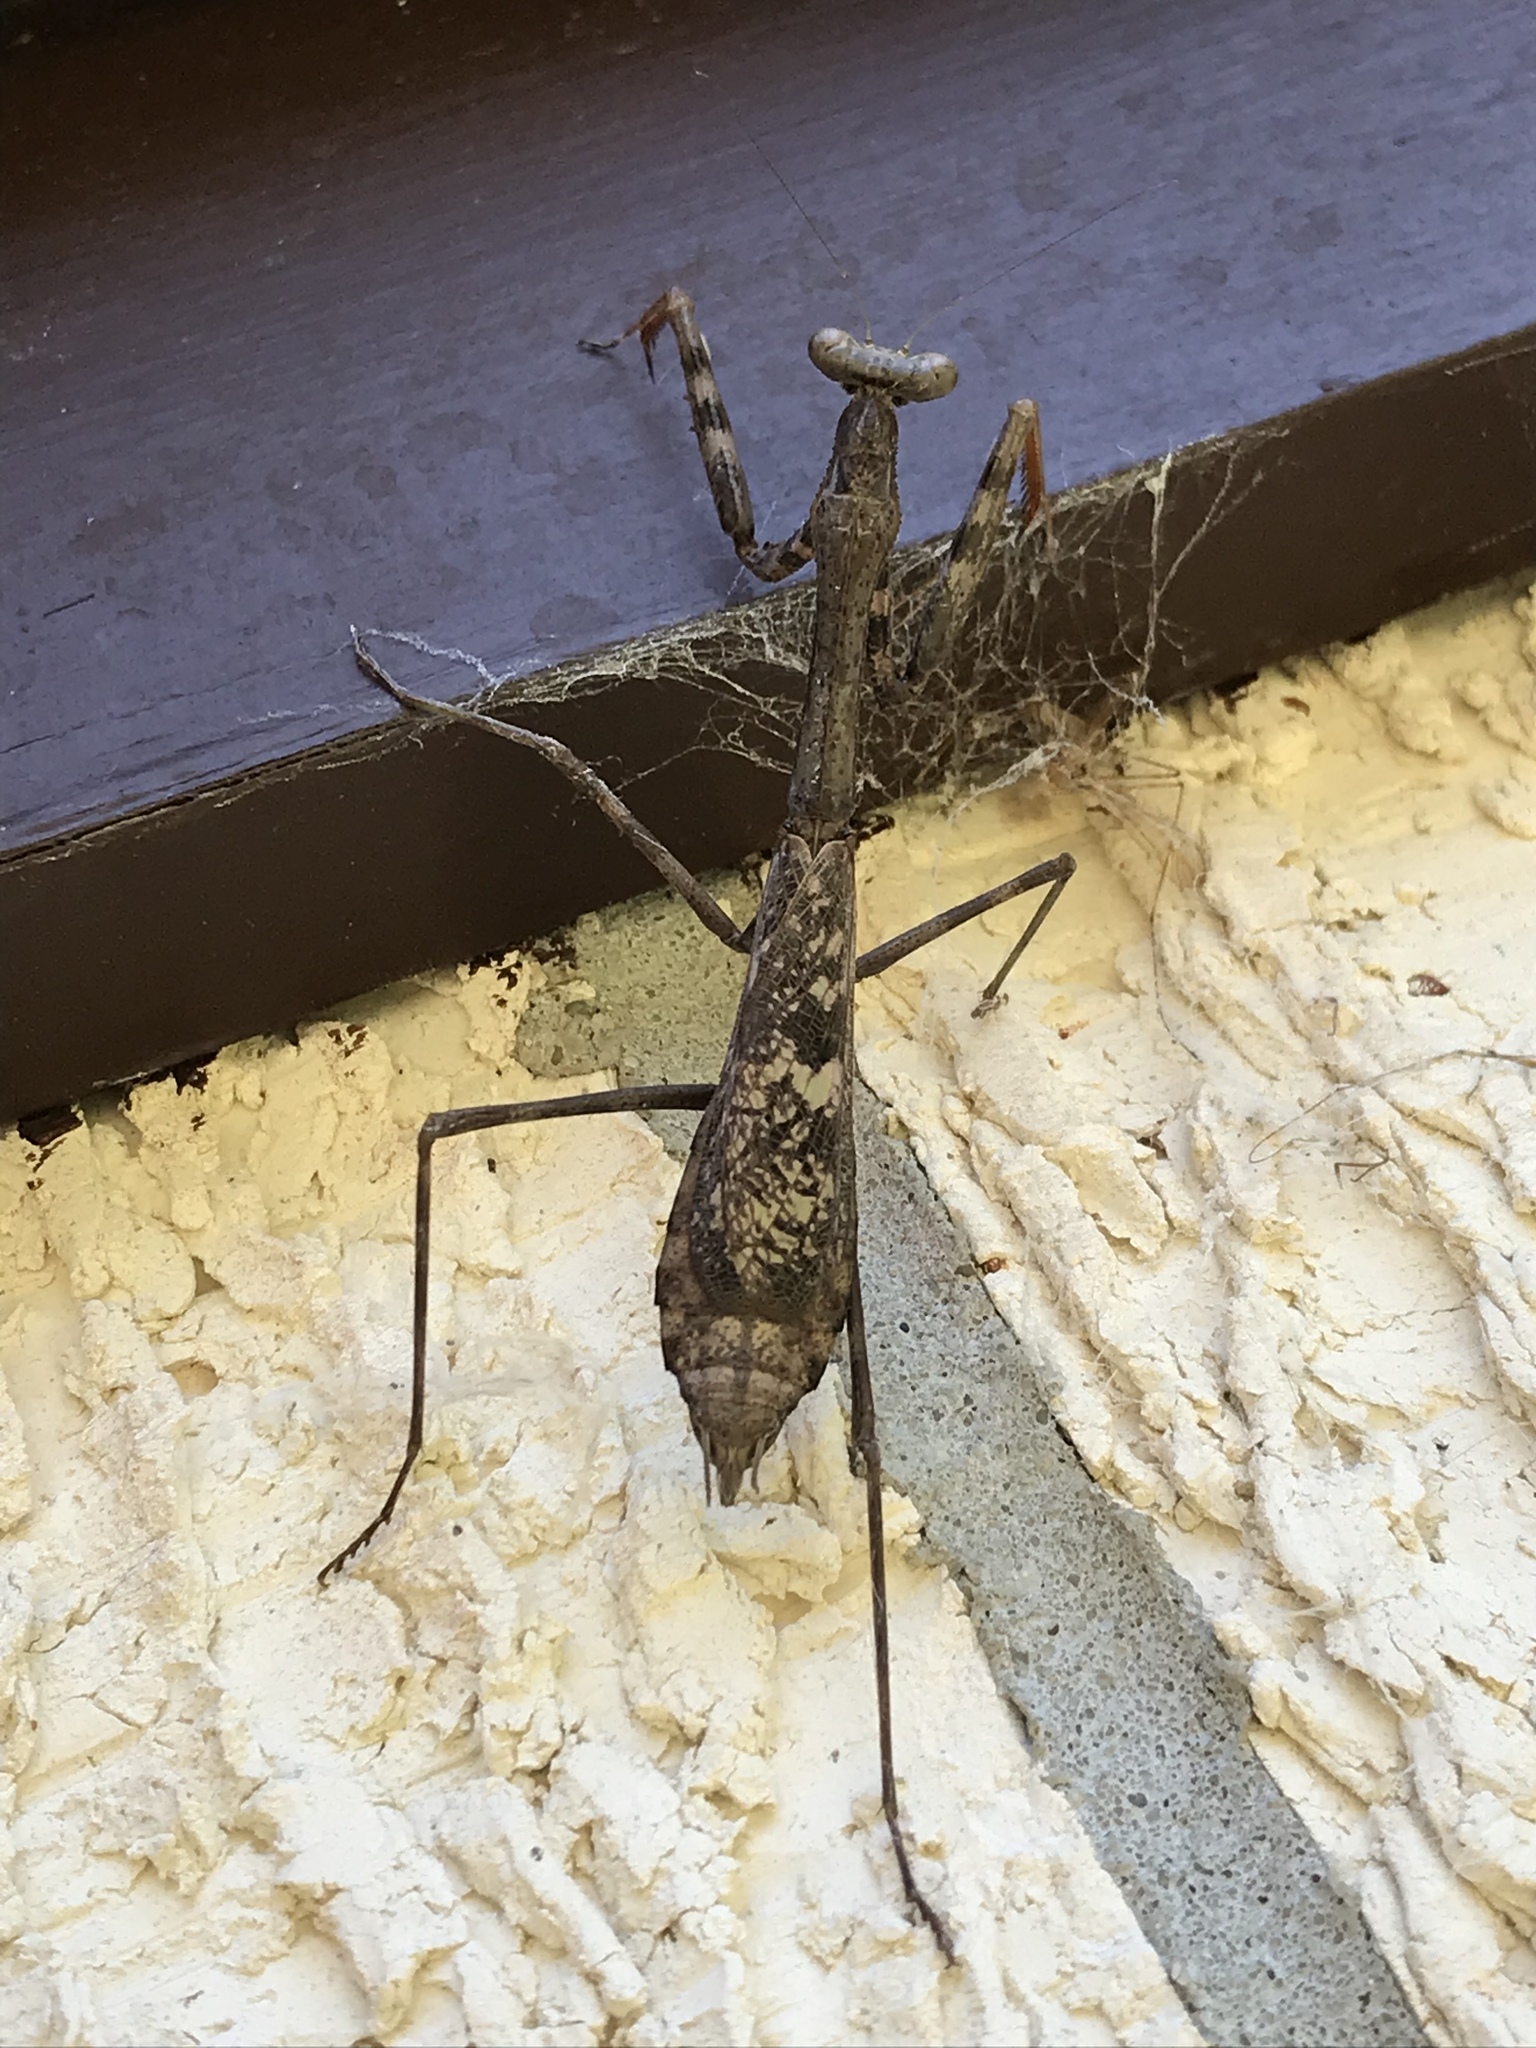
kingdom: Animalia
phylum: Arthropoda
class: Insecta
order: Mantodea
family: Mantidae
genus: Stagmomantis
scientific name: Stagmomantis carolina
